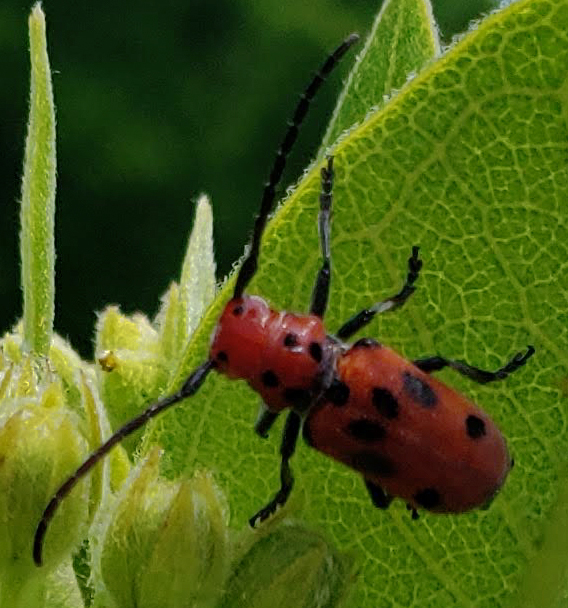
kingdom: Animalia
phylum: Arthropoda
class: Insecta
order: Coleoptera
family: Cerambycidae
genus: Tetraopes
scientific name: Tetraopes tetrophthalmus
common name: Red milkweed beetle
